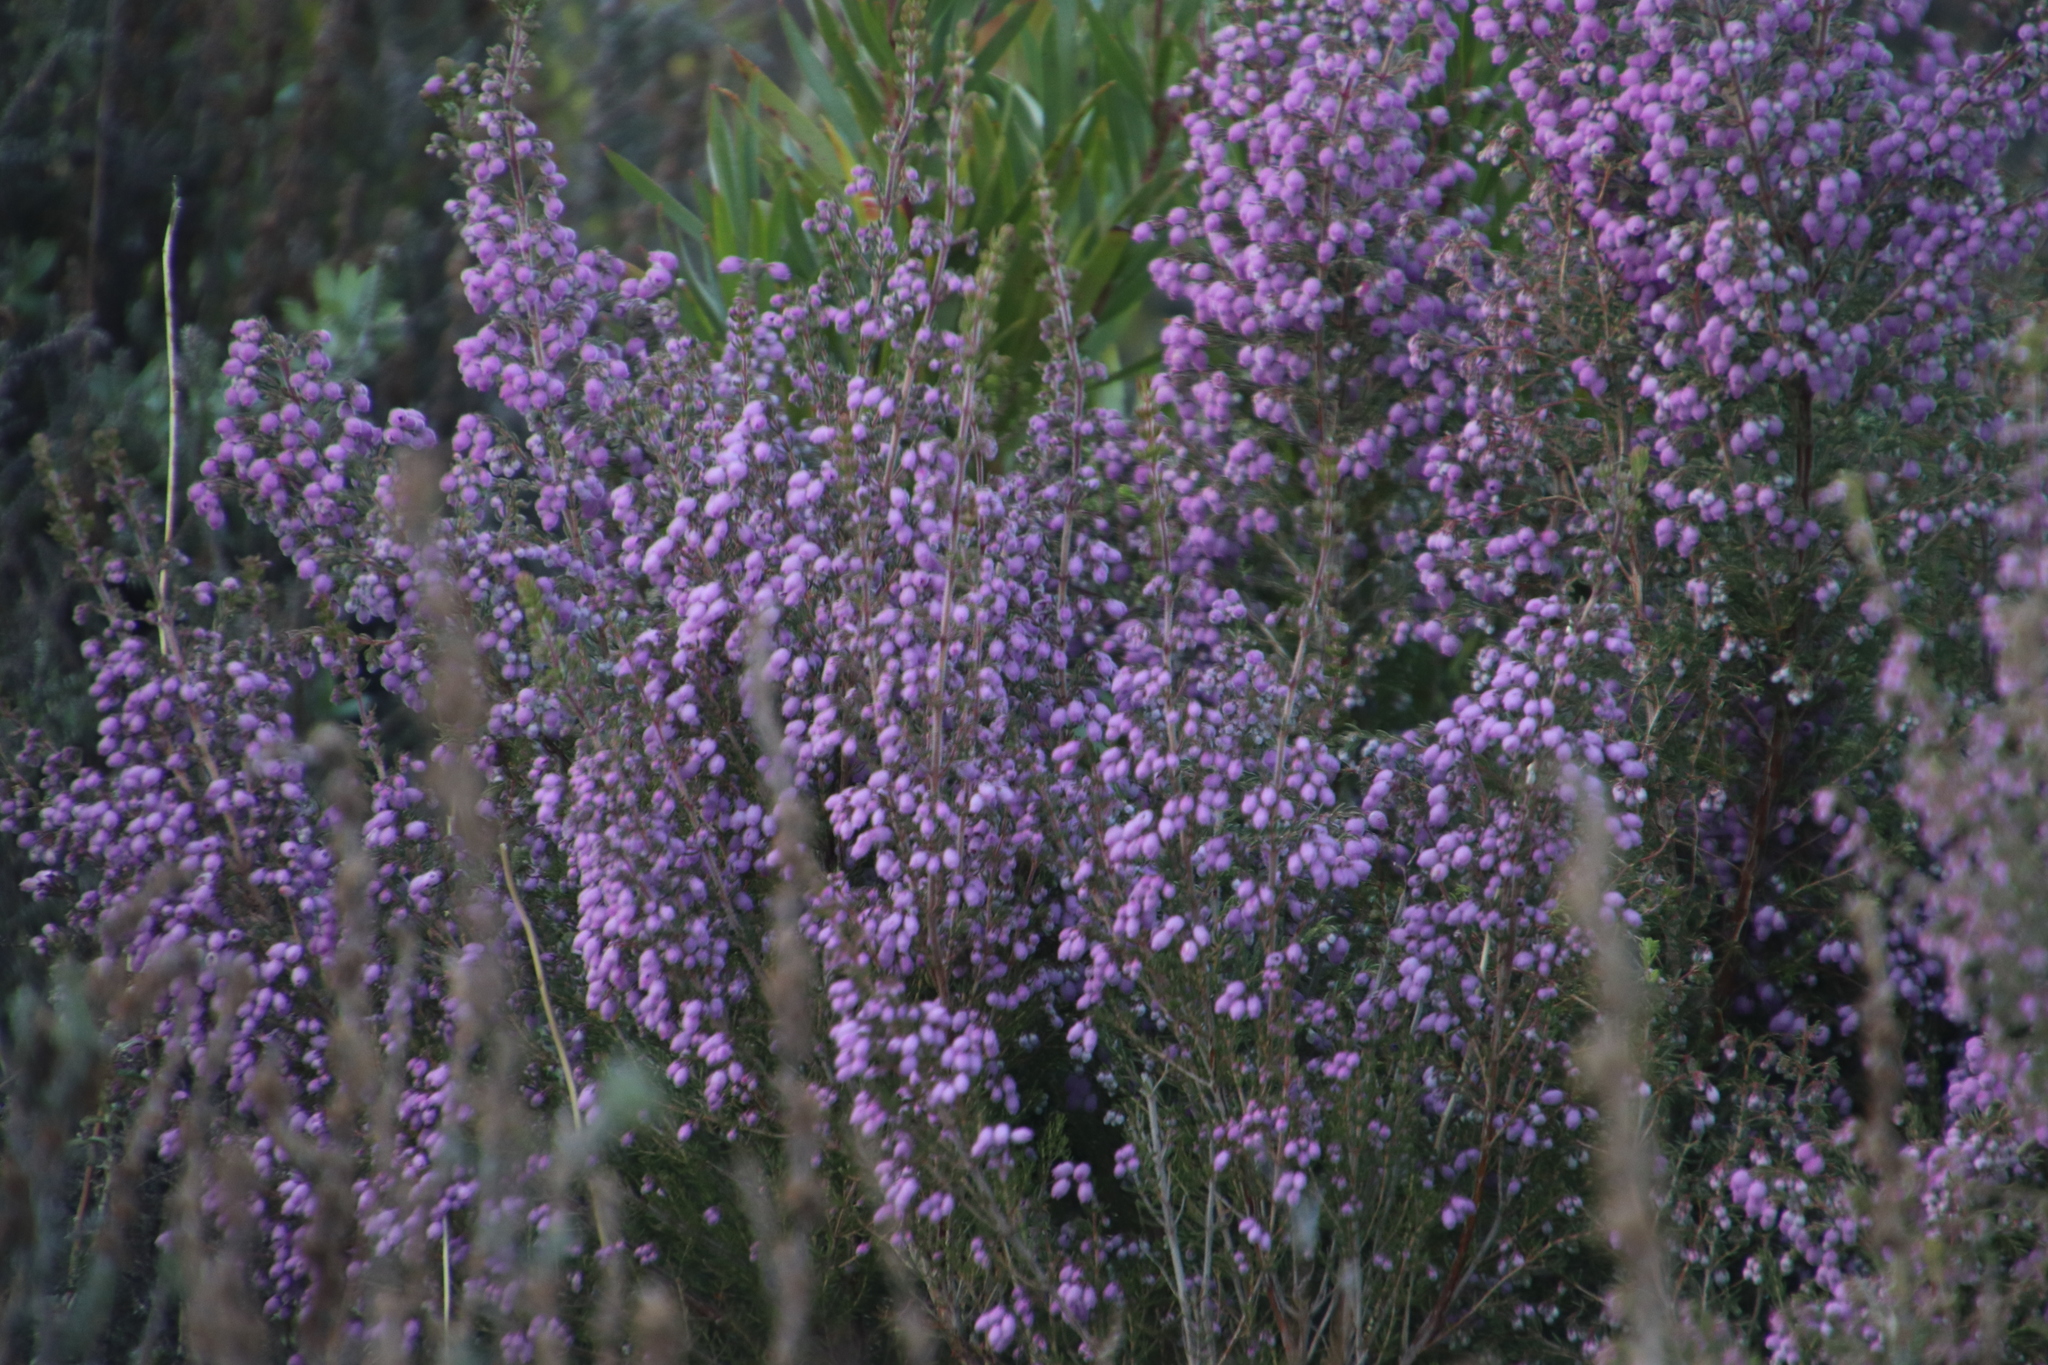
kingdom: Plantae
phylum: Tracheophyta
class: Magnoliopsida
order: Ericales
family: Ericaceae
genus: Erica
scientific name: Erica hirtiflora
